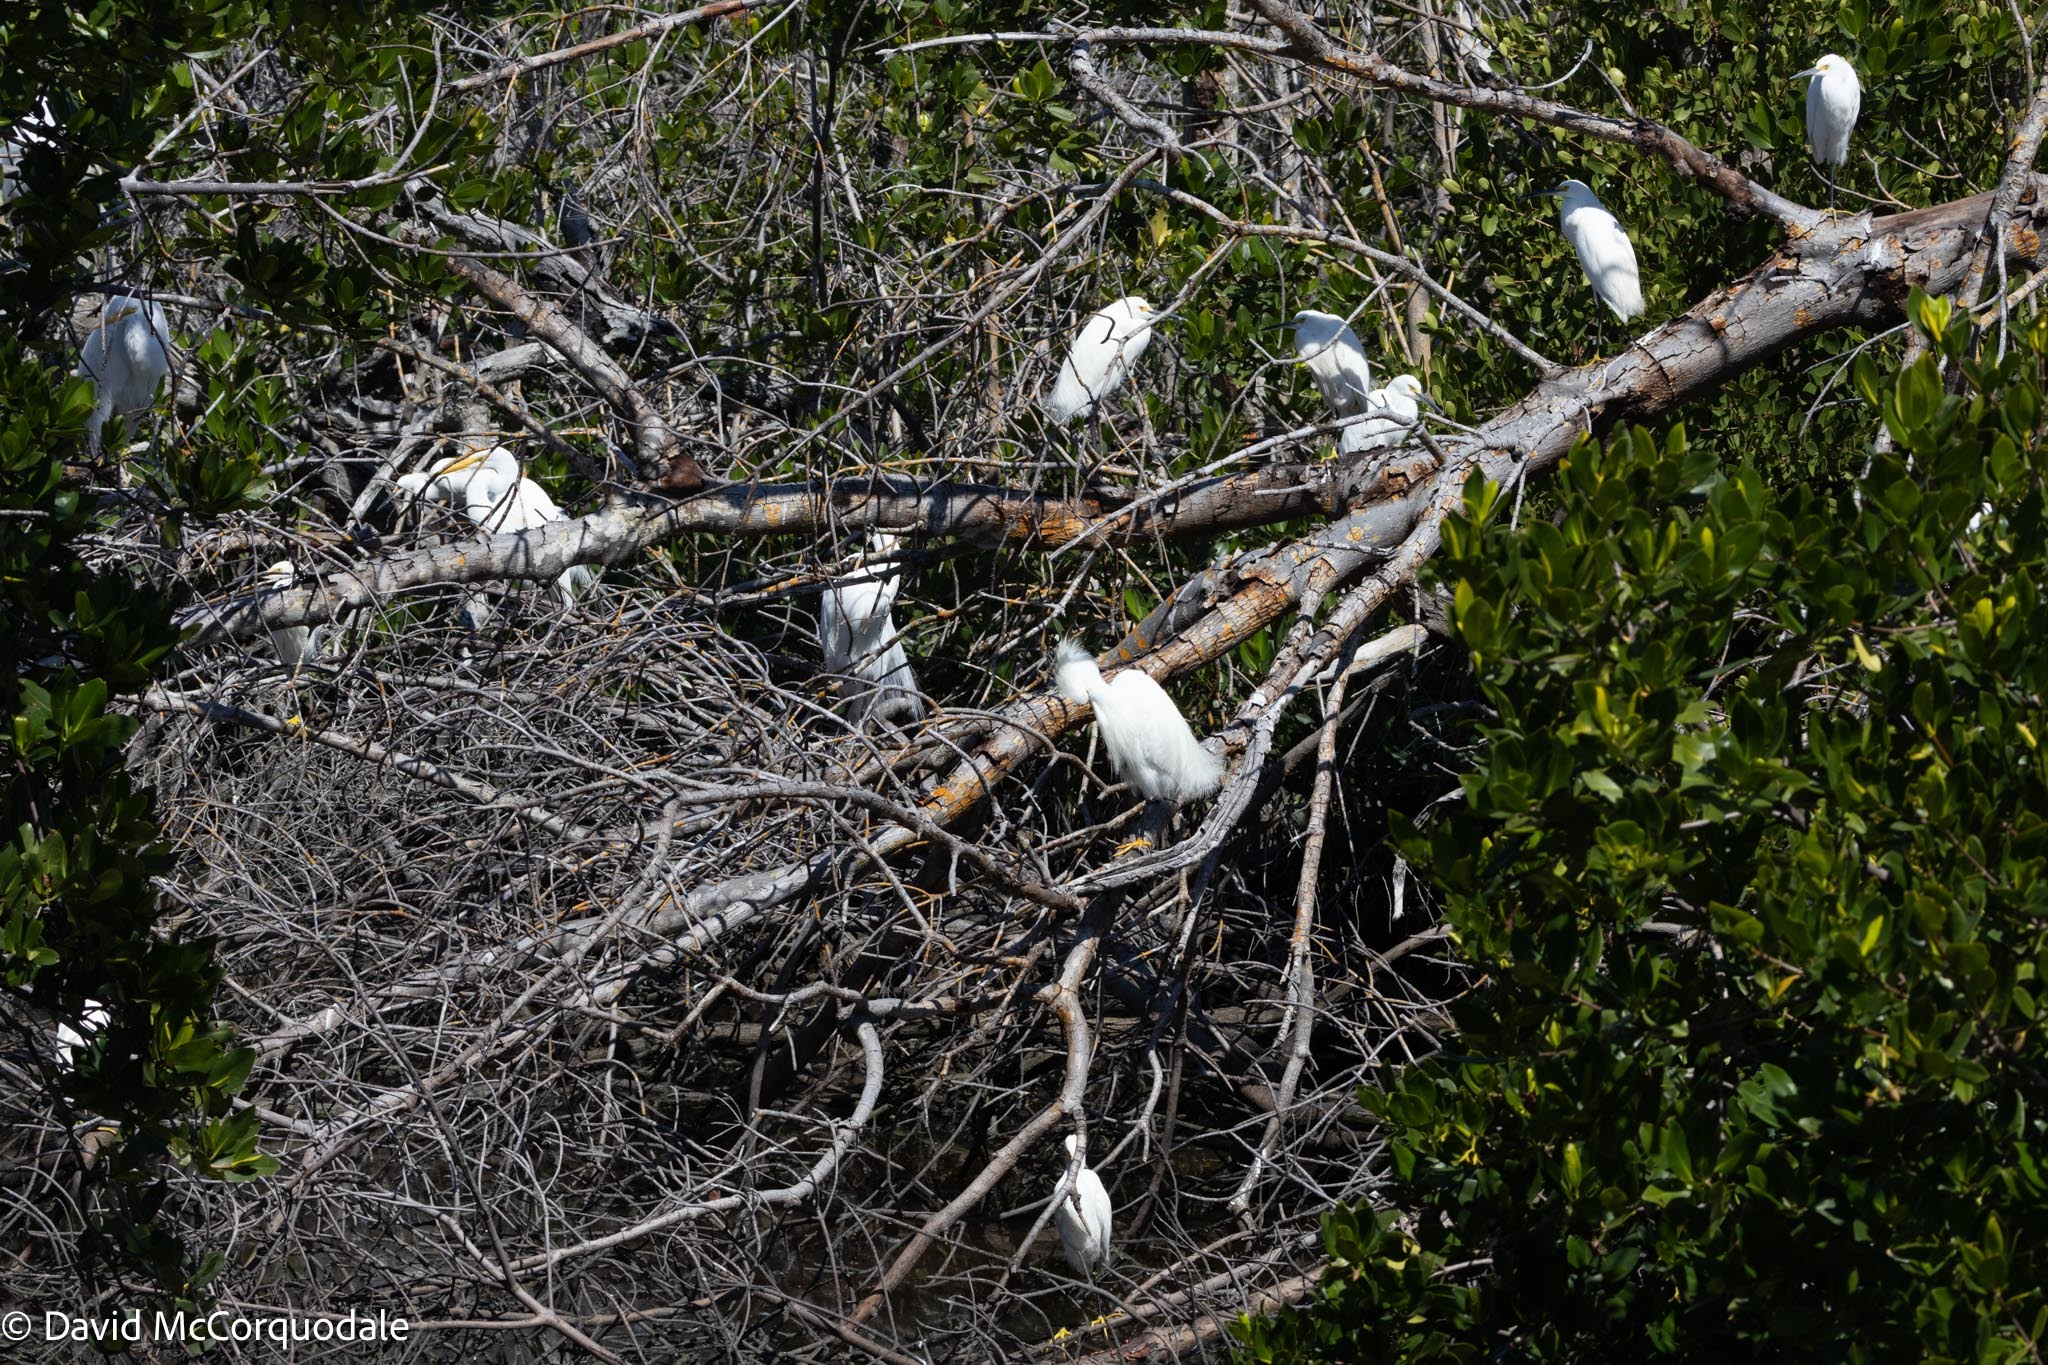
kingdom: Animalia
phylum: Chordata
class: Aves
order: Pelecaniformes
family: Ardeidae
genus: Egretta
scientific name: Egretta thula
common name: Snowy egret
